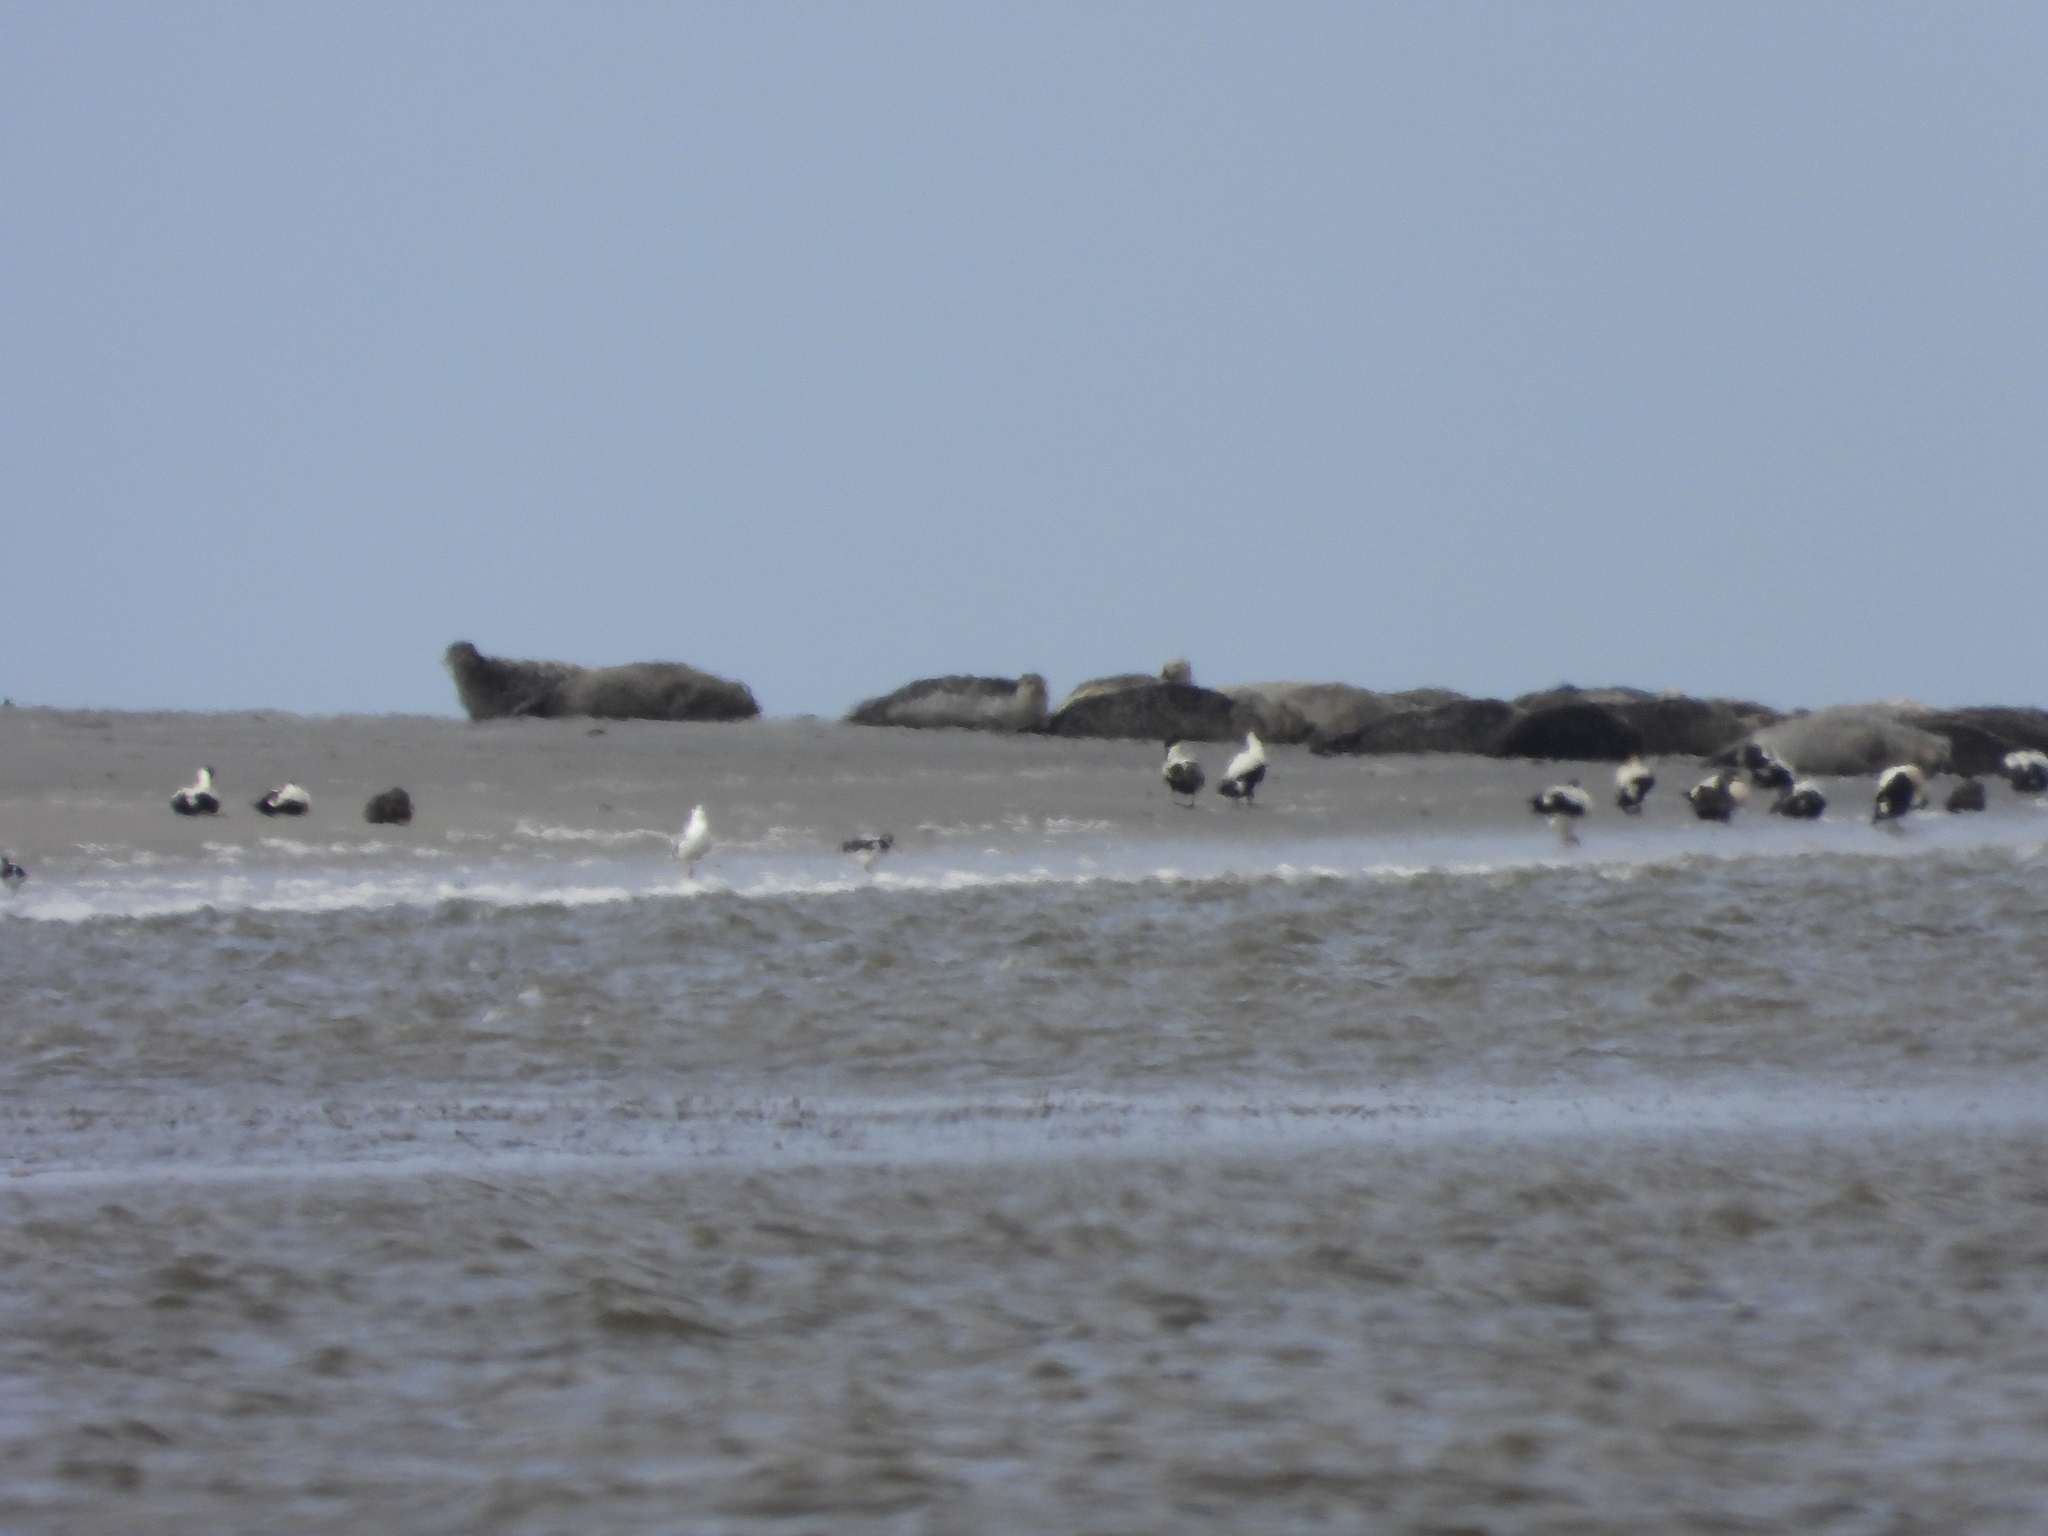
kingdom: Animalia
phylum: Chordata
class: Mammalia
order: Carnivora
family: Phocidae
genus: Phoca
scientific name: Phoca vitulina
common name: Harbor seal
